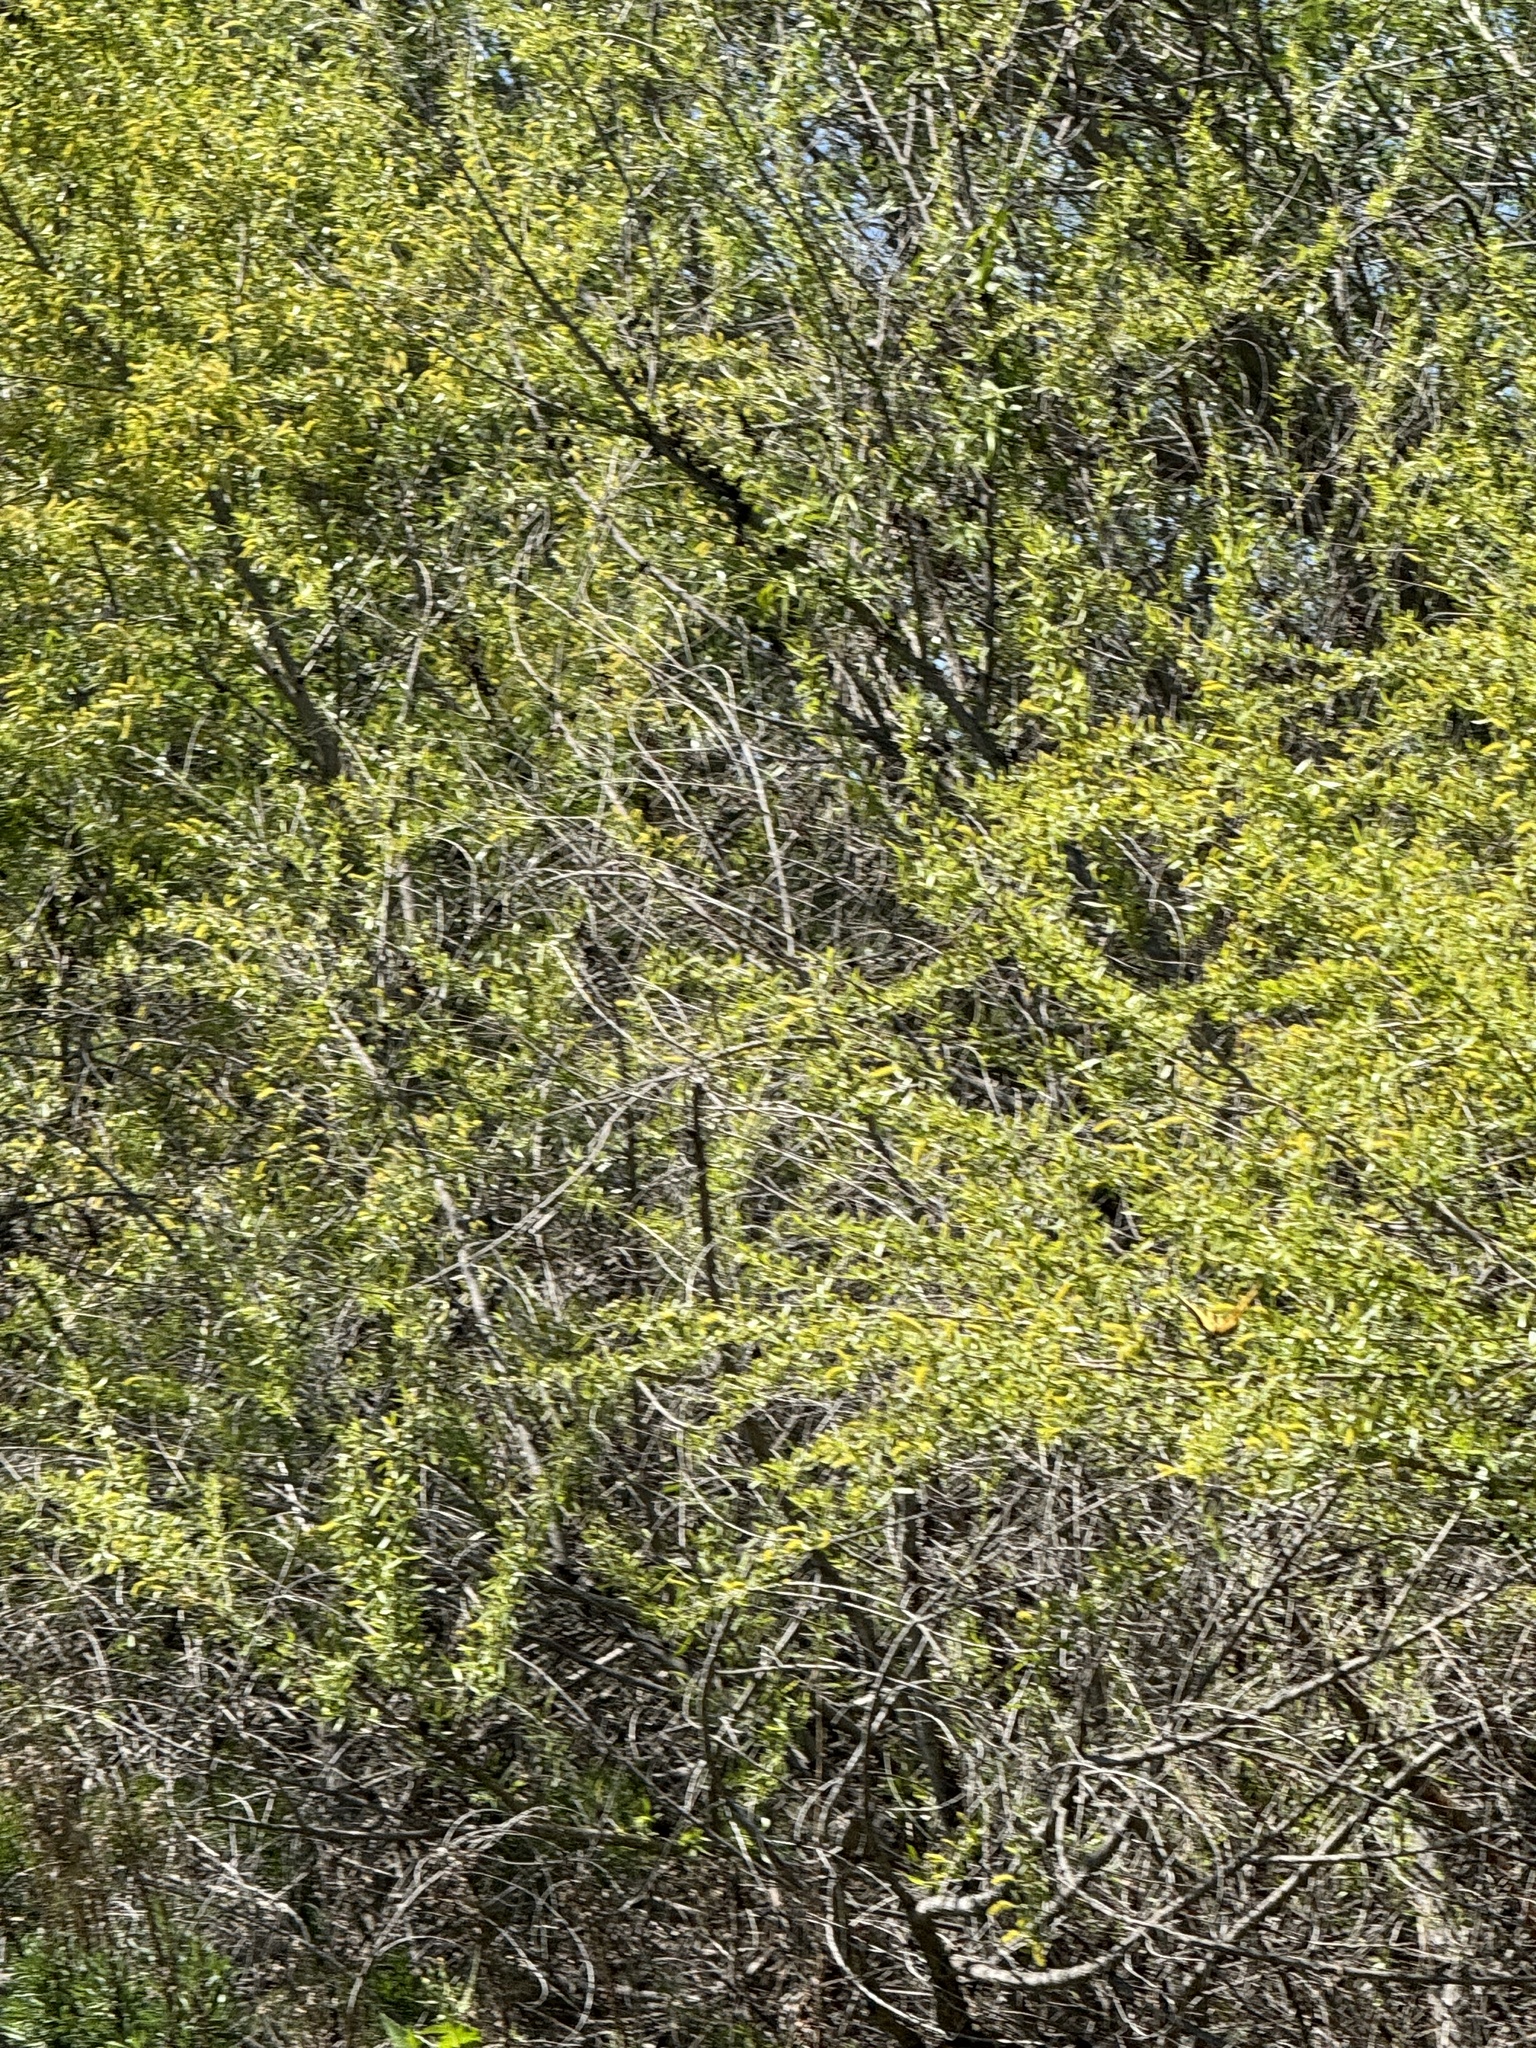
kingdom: Animalia
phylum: Arthropoda
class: Insecta
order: Lepidoptera
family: Papilionidae
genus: Papilio
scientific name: Papilio rutulus
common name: Western tiger swallowtail
